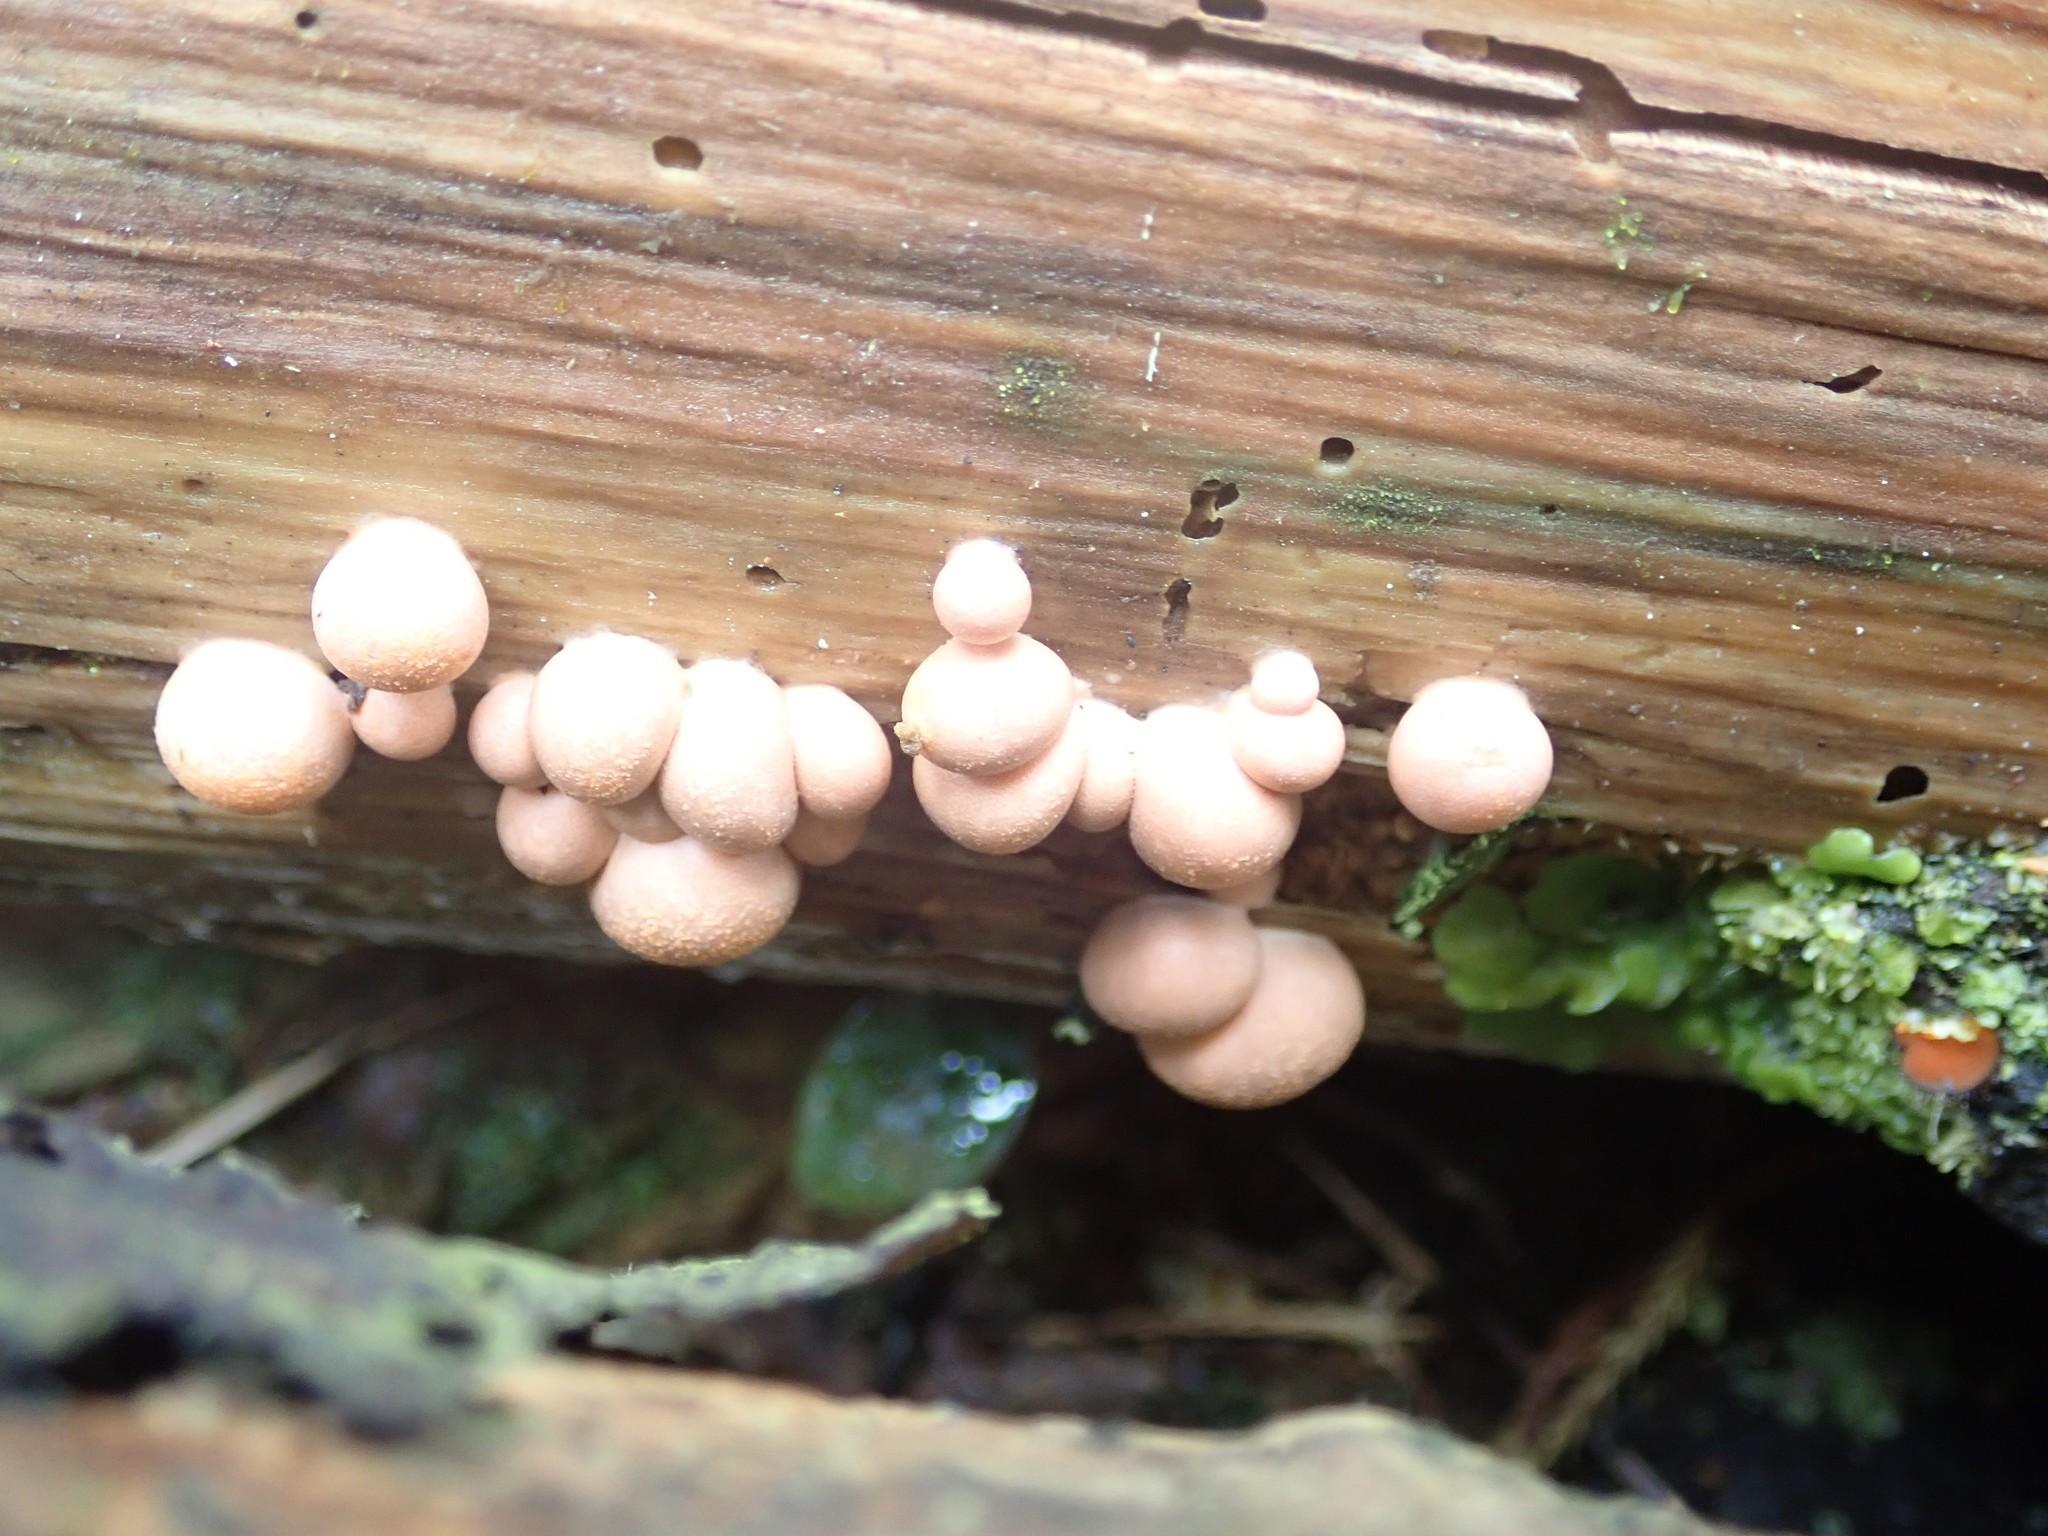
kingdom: Protozoa
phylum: Mycetozoa
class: Myxomycetes
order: Cribrariales
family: Tubiferaceae
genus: Lycogala
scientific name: Lycogala epidendrum
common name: Wolf's milk
